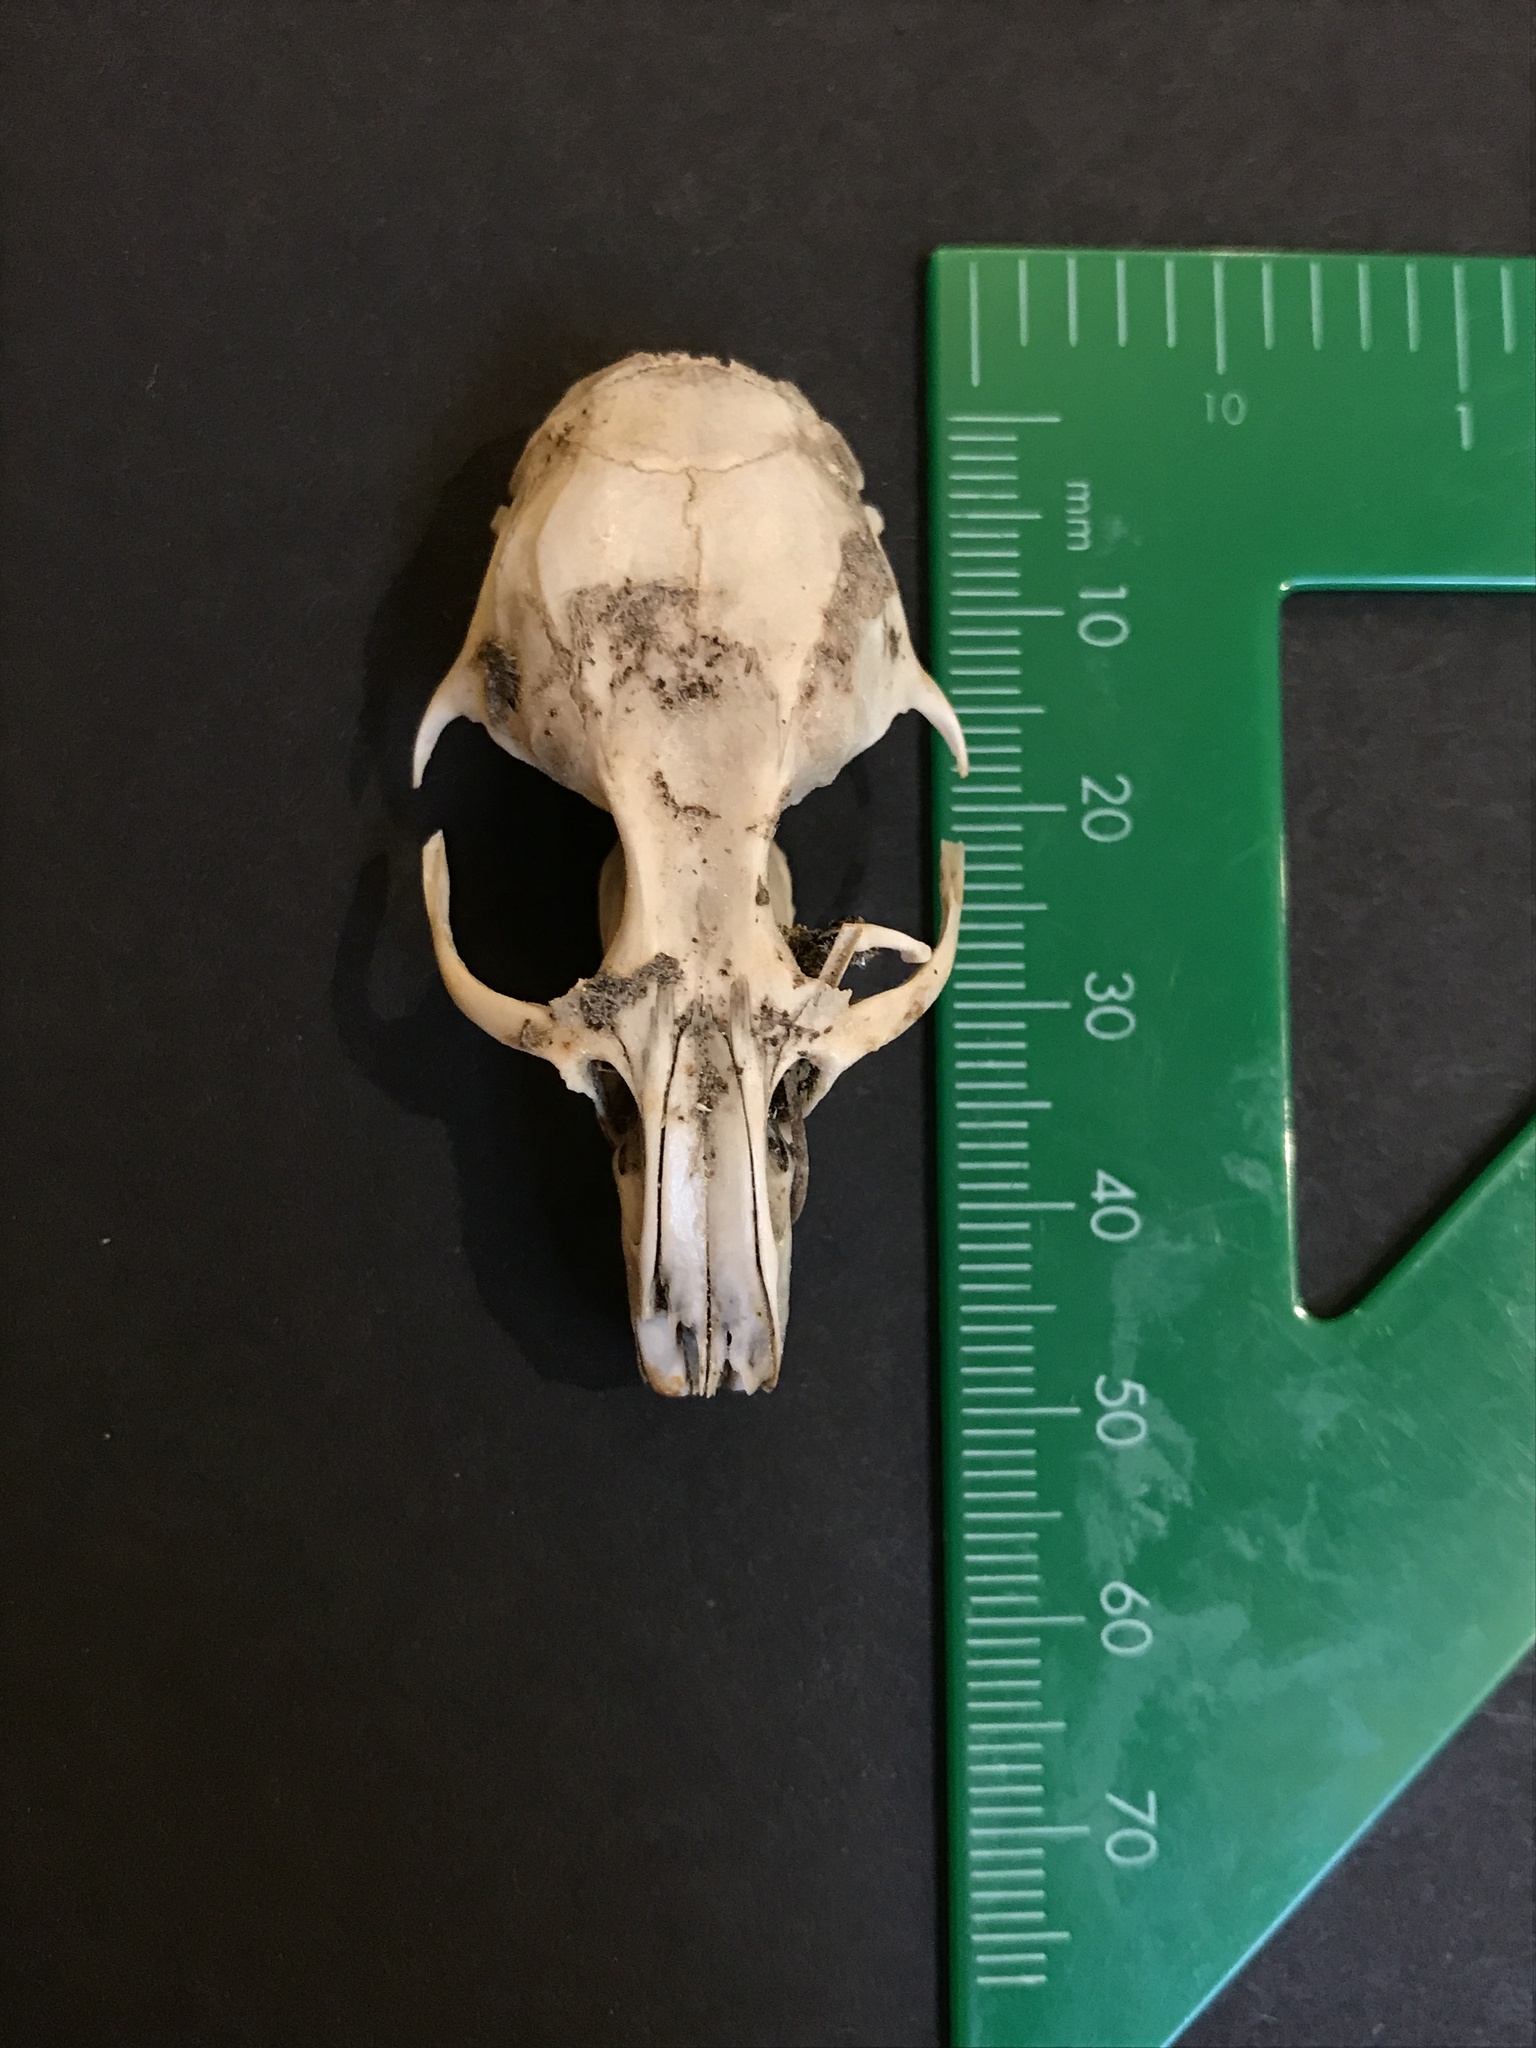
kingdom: Animalia
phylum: Chordata
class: Mammalia
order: Rodentia
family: Cricetidae
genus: Neotoma
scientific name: Neotoma fuscipes
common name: Dusky-footed woodrat
